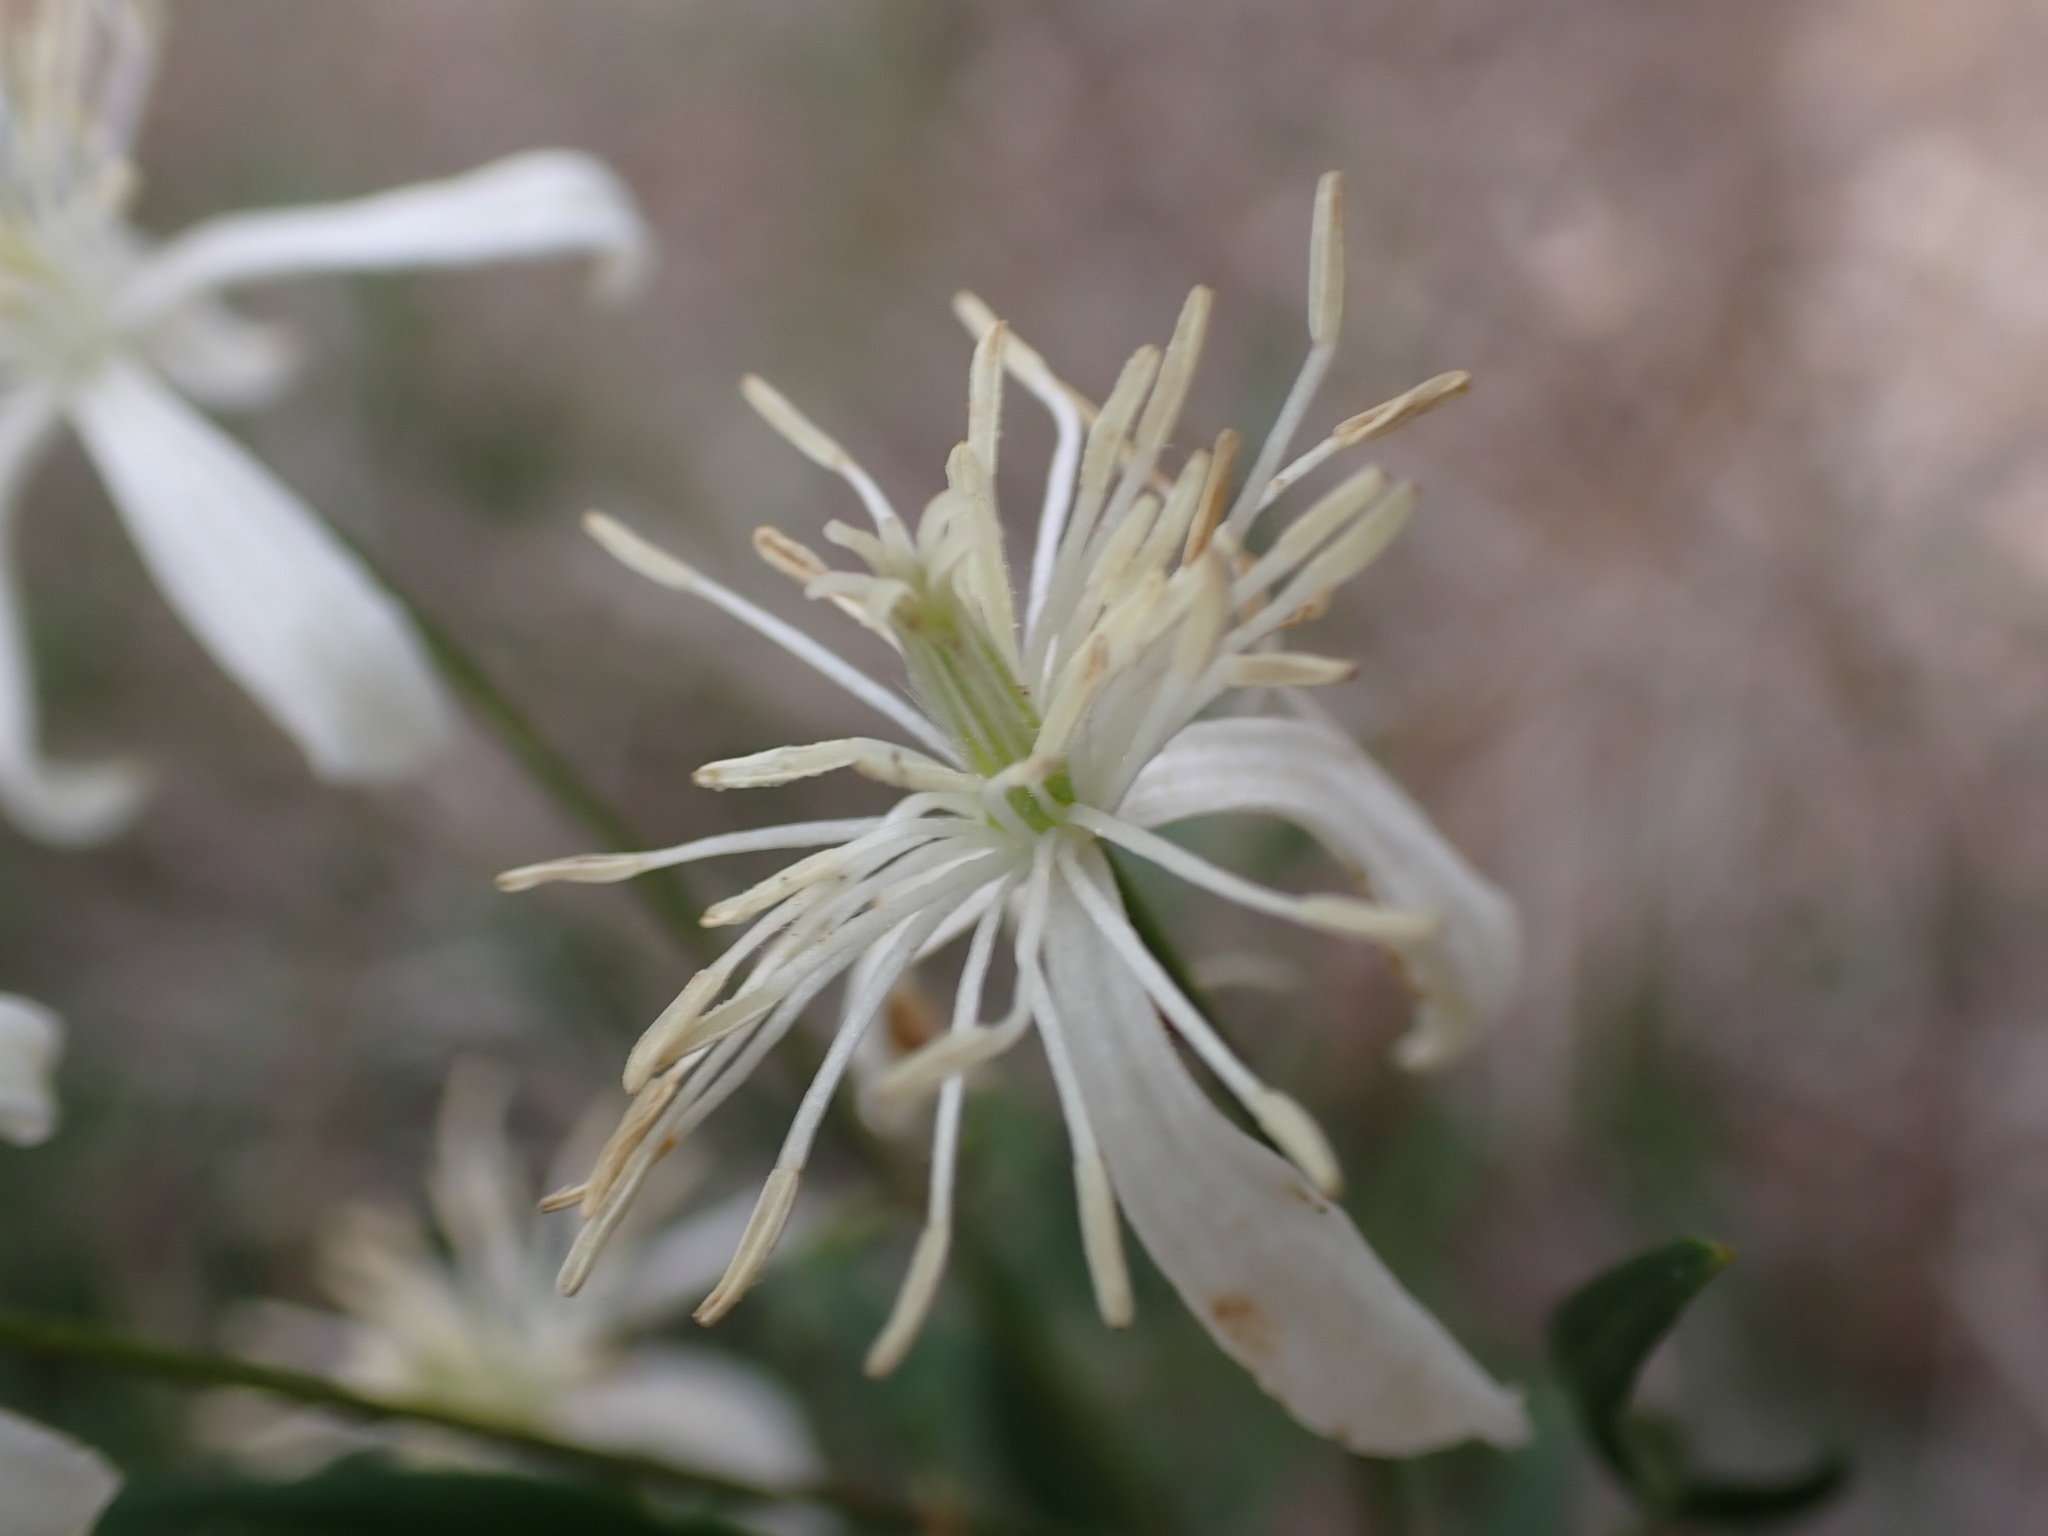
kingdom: Plantae
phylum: Tracheophyta
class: Magnoliopsida
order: Ranunculales
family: Ranunculaceae
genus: Clematis
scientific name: Clematis flammula
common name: Virgin's-bower
